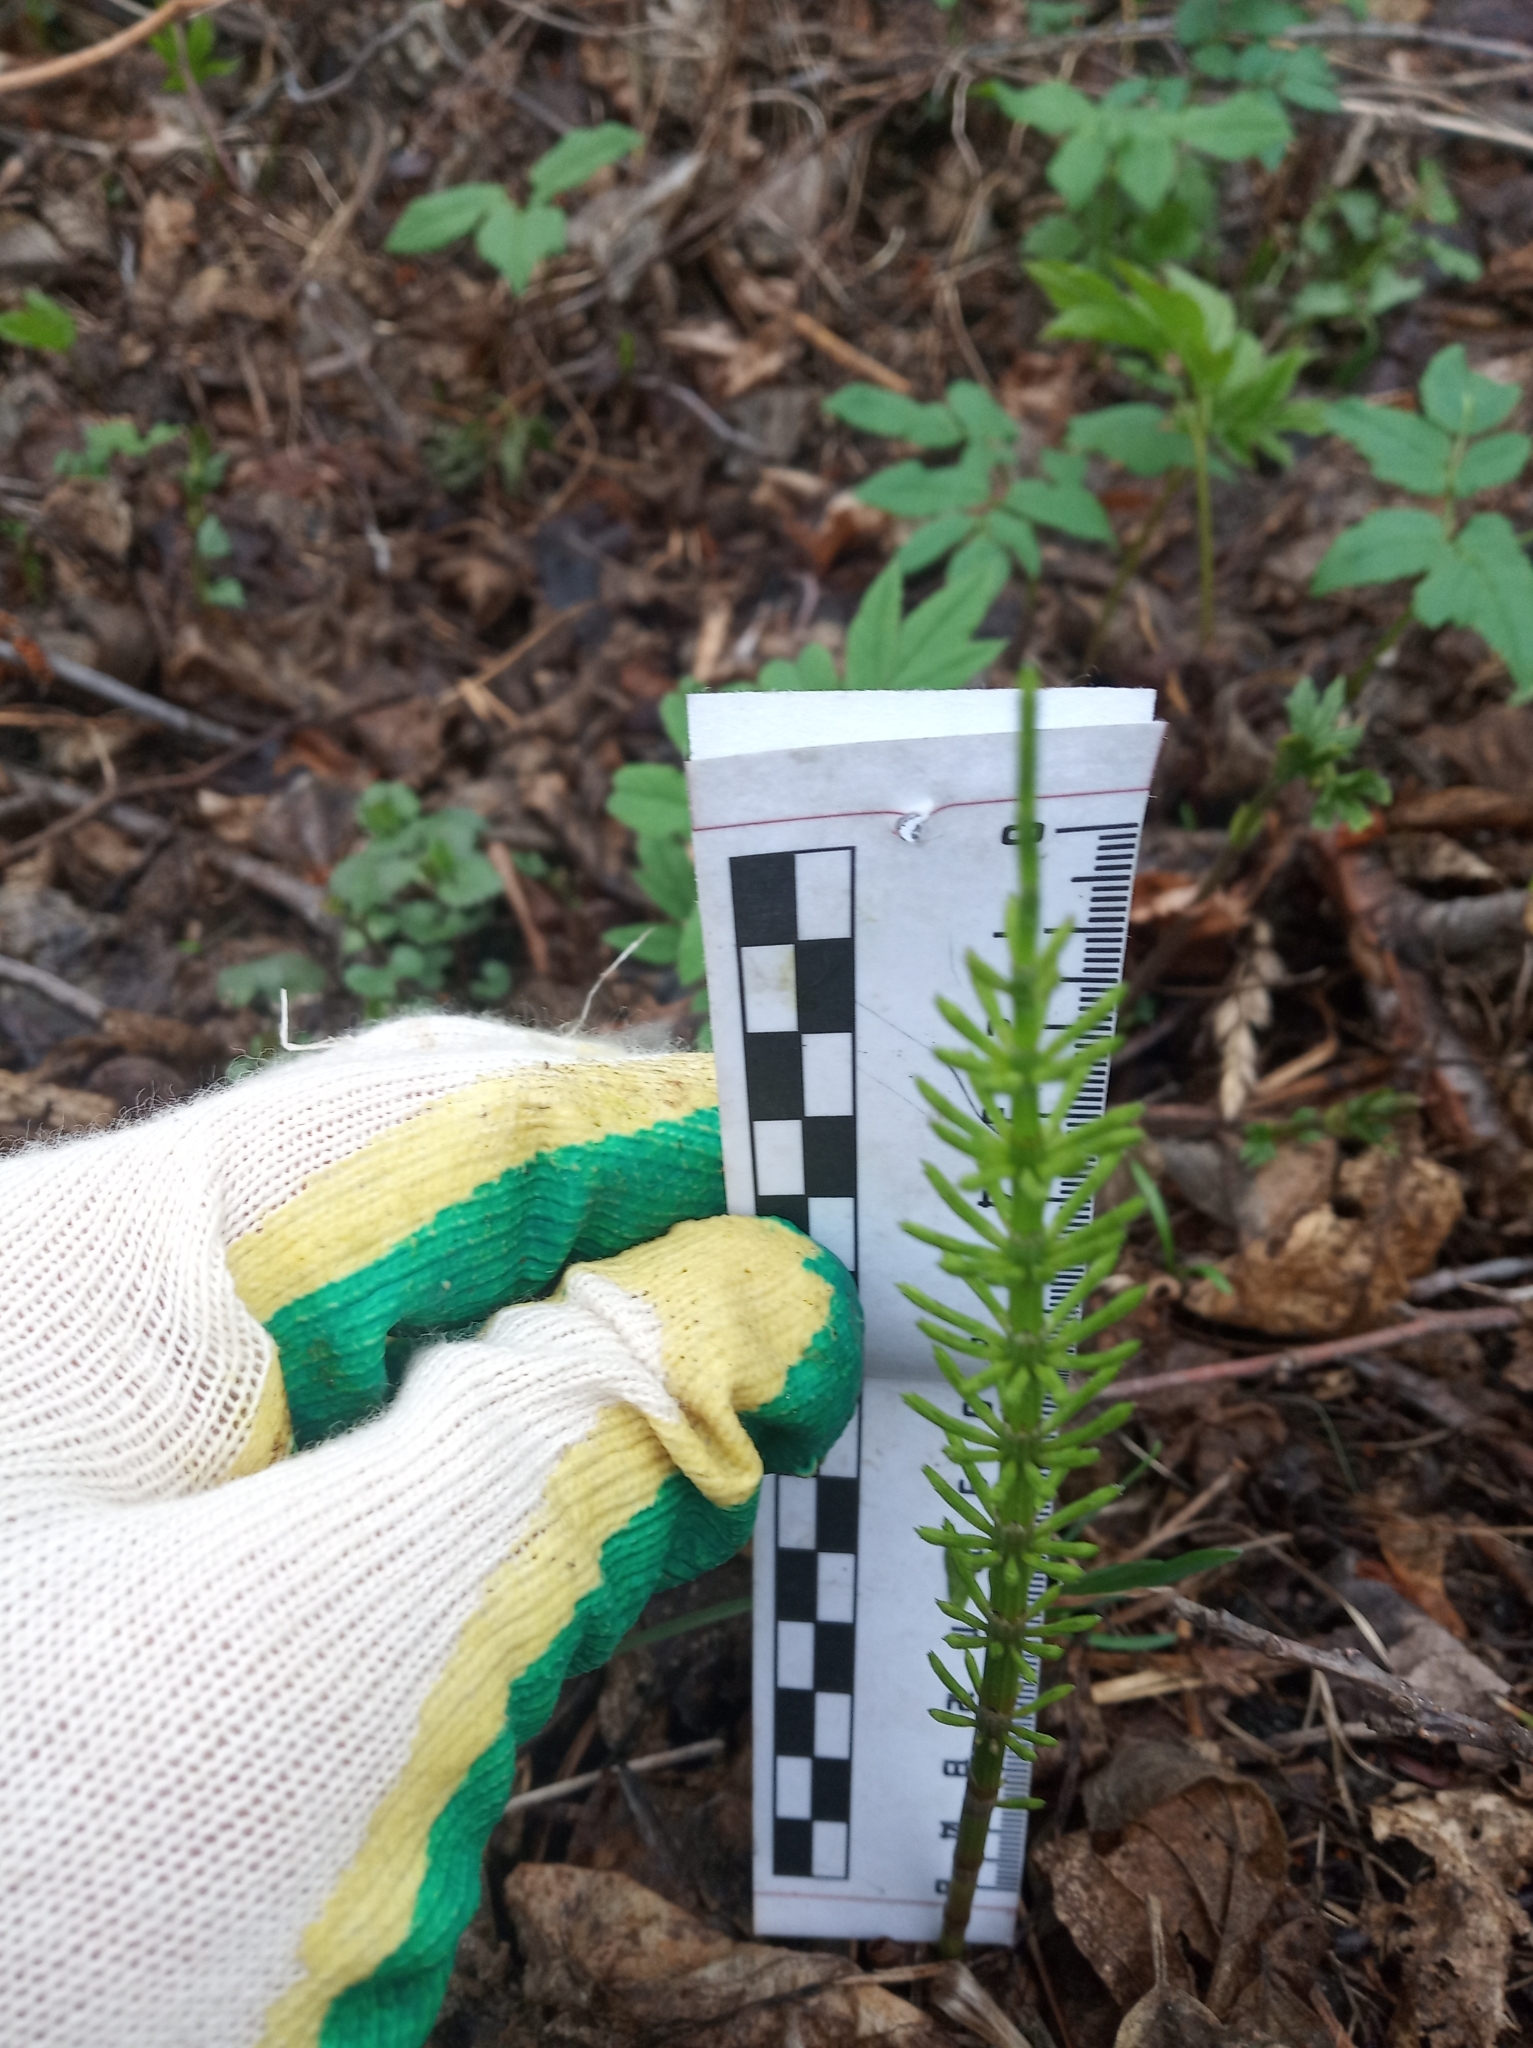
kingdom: Plantae
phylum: Tracheophyta
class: Polypodiopsida
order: Equisetales
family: Equisetaceae
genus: Equisetum
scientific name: Equisetum arvense
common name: Field horsetail
